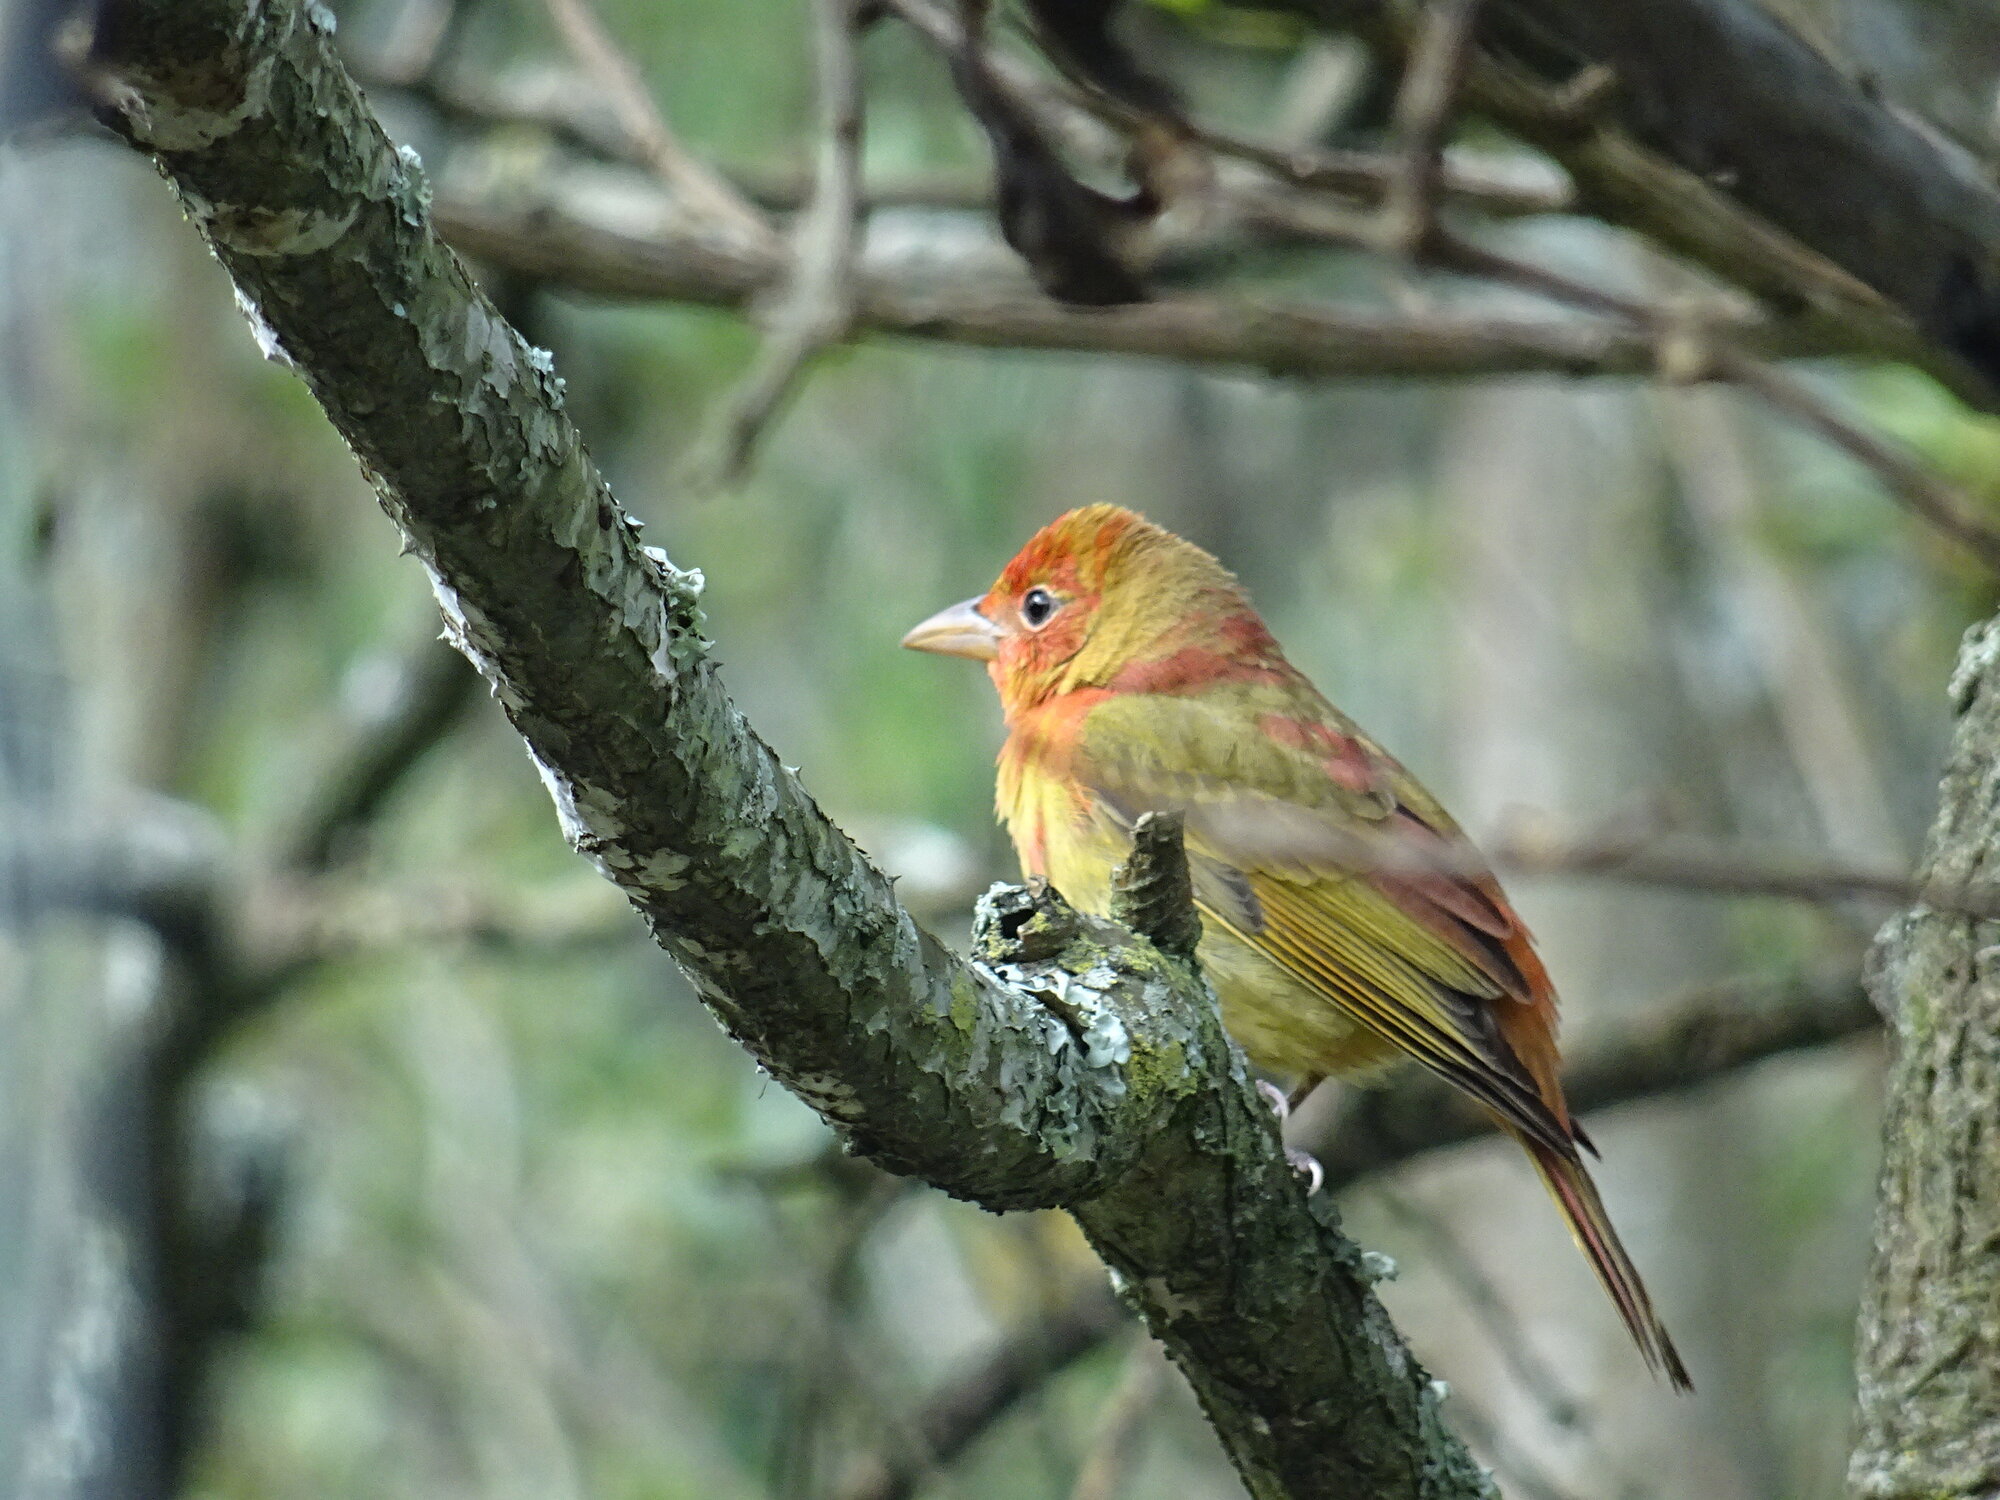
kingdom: Animalia
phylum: Chordata
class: Aves
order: Passeriformes
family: Cardinalidae
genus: Piranga
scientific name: Piranga rubra
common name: Summer tanager
